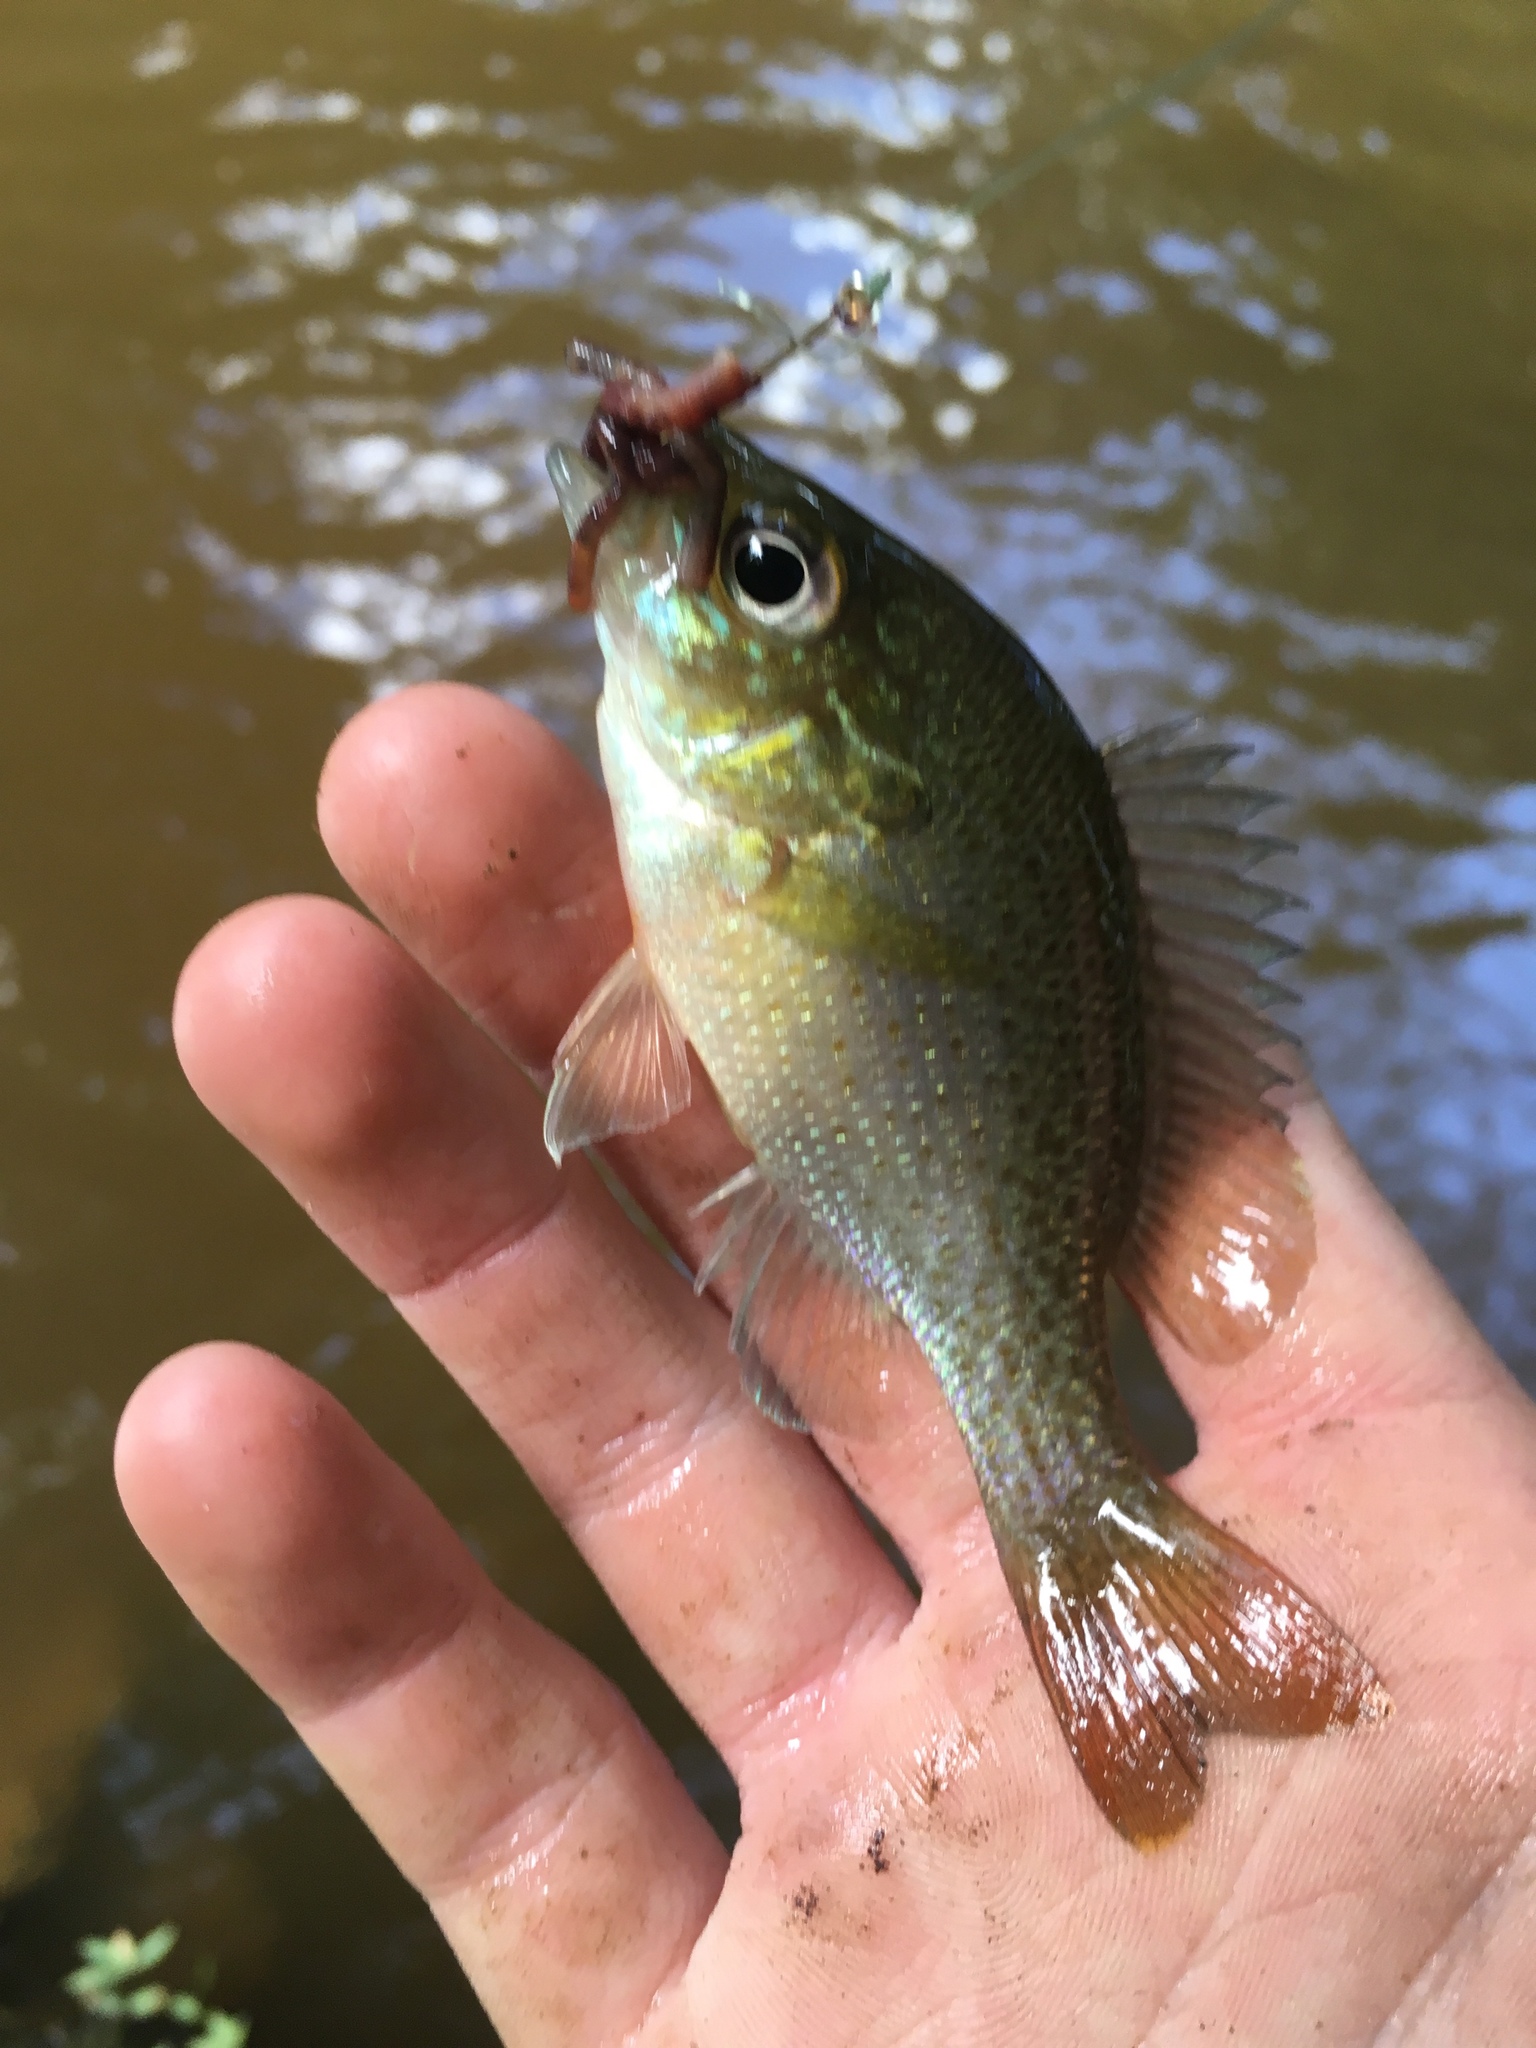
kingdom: Animalia
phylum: Chordata
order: Perciformes
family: Centrarchidae
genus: Lepomis
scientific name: Lepomis auritus
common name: Redbreast sunfish
